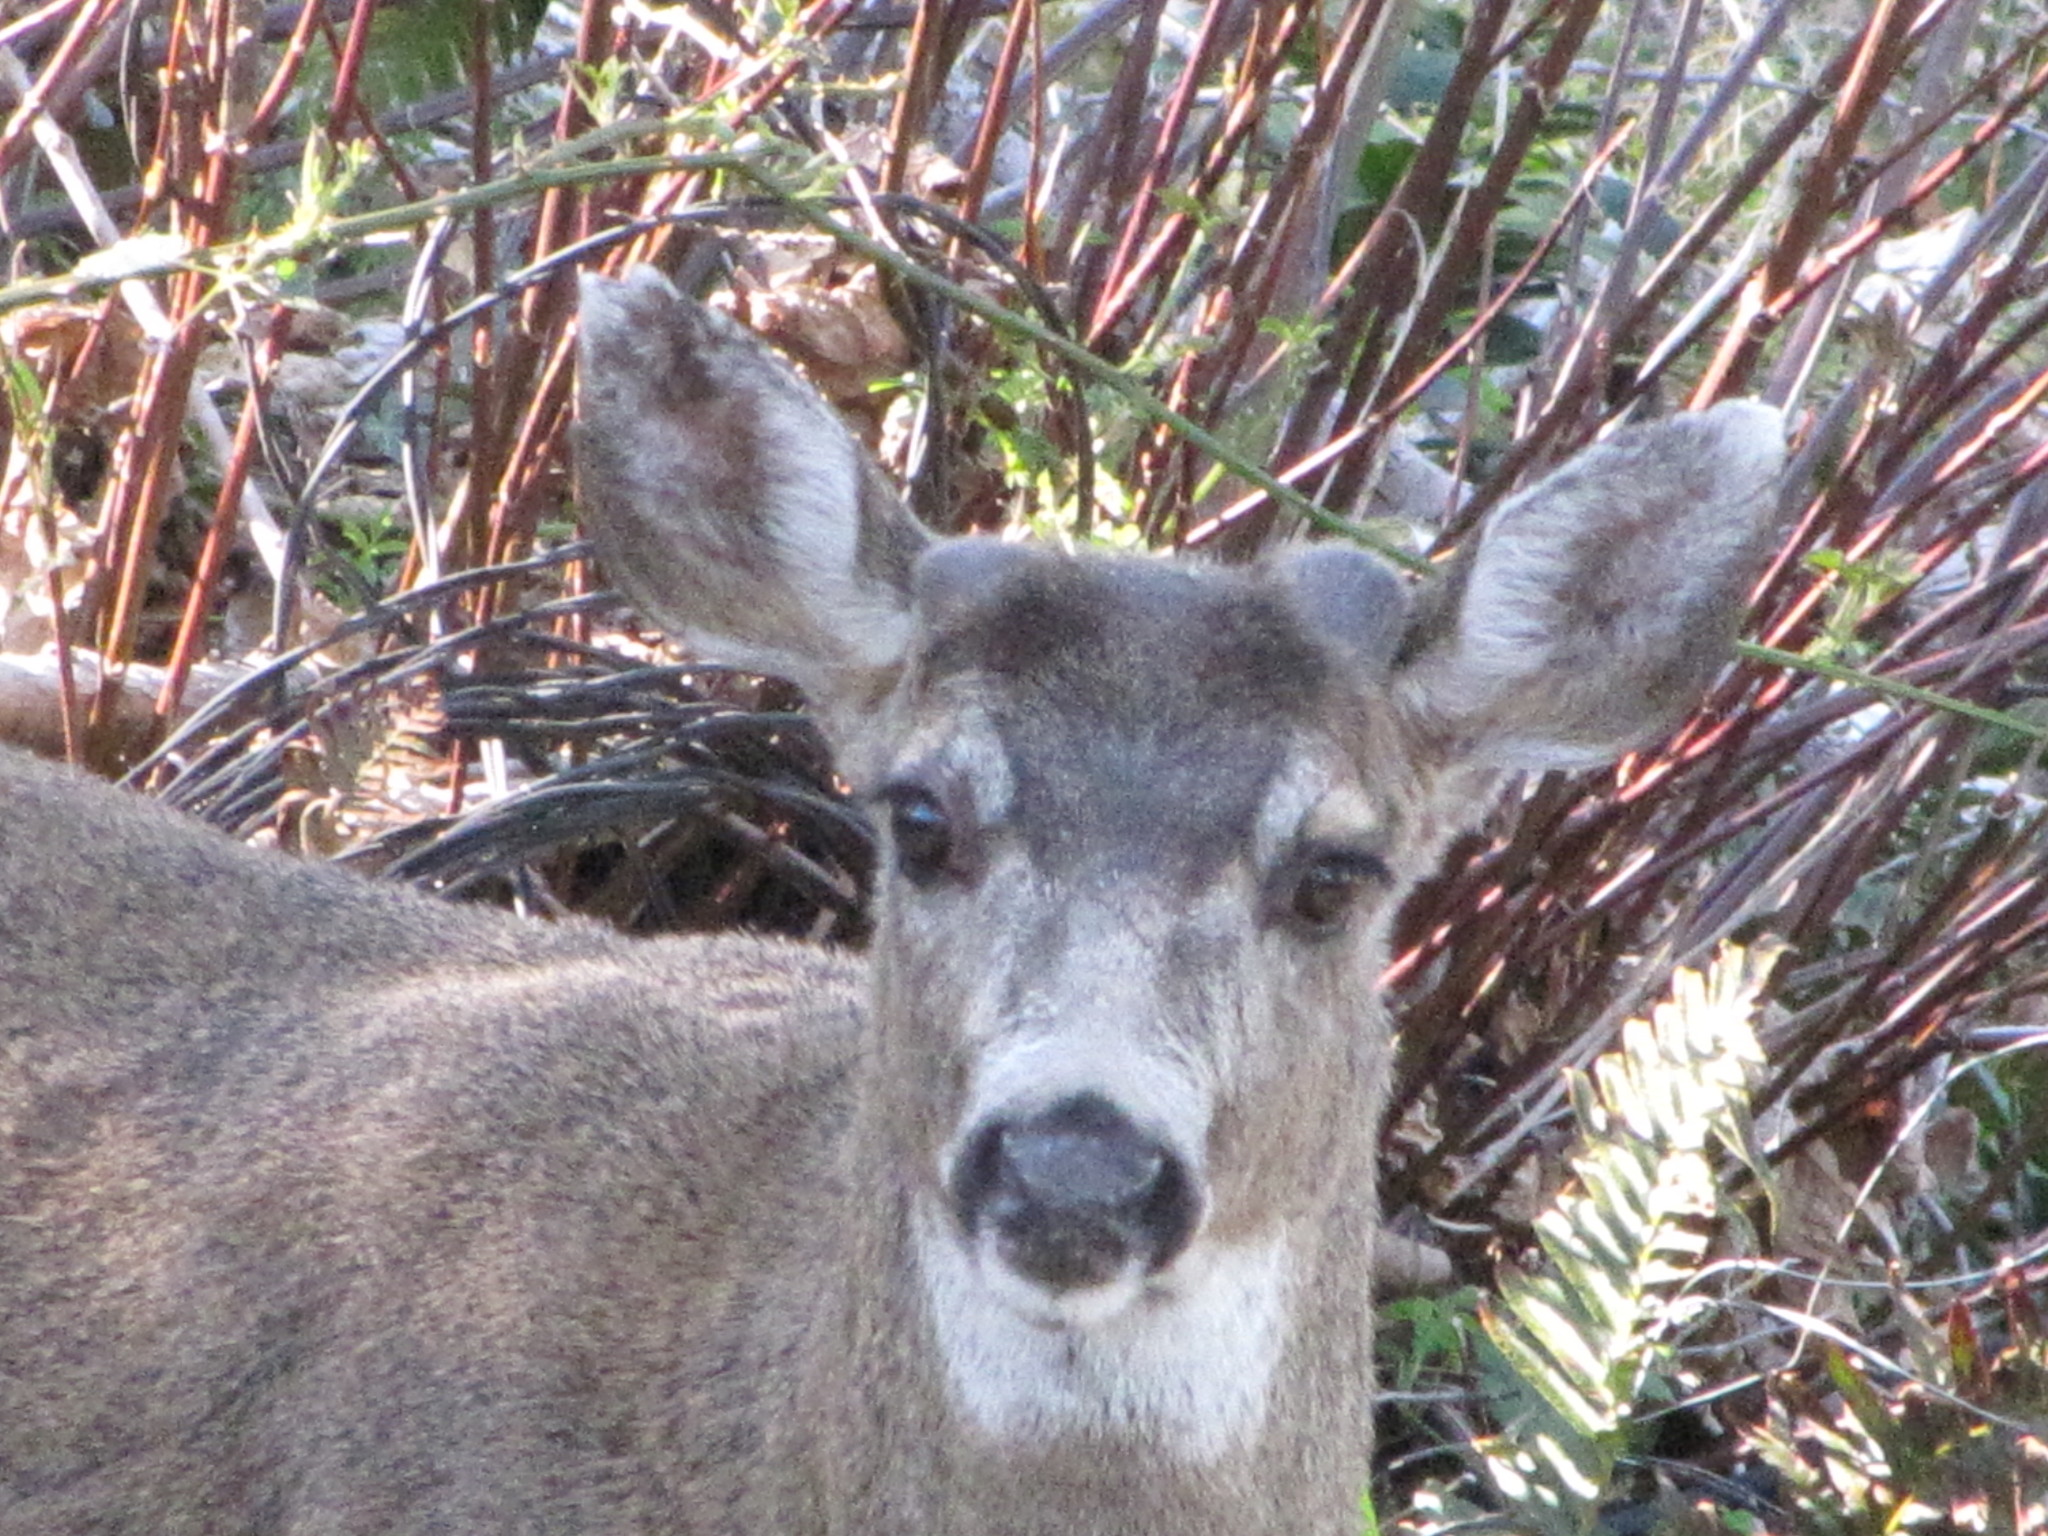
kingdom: Animalia
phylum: Chordata
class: Mammalia
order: Artiodactyla
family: Cervidae
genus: Odocoileus
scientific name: Odocoileus hemionus
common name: Mule deer
